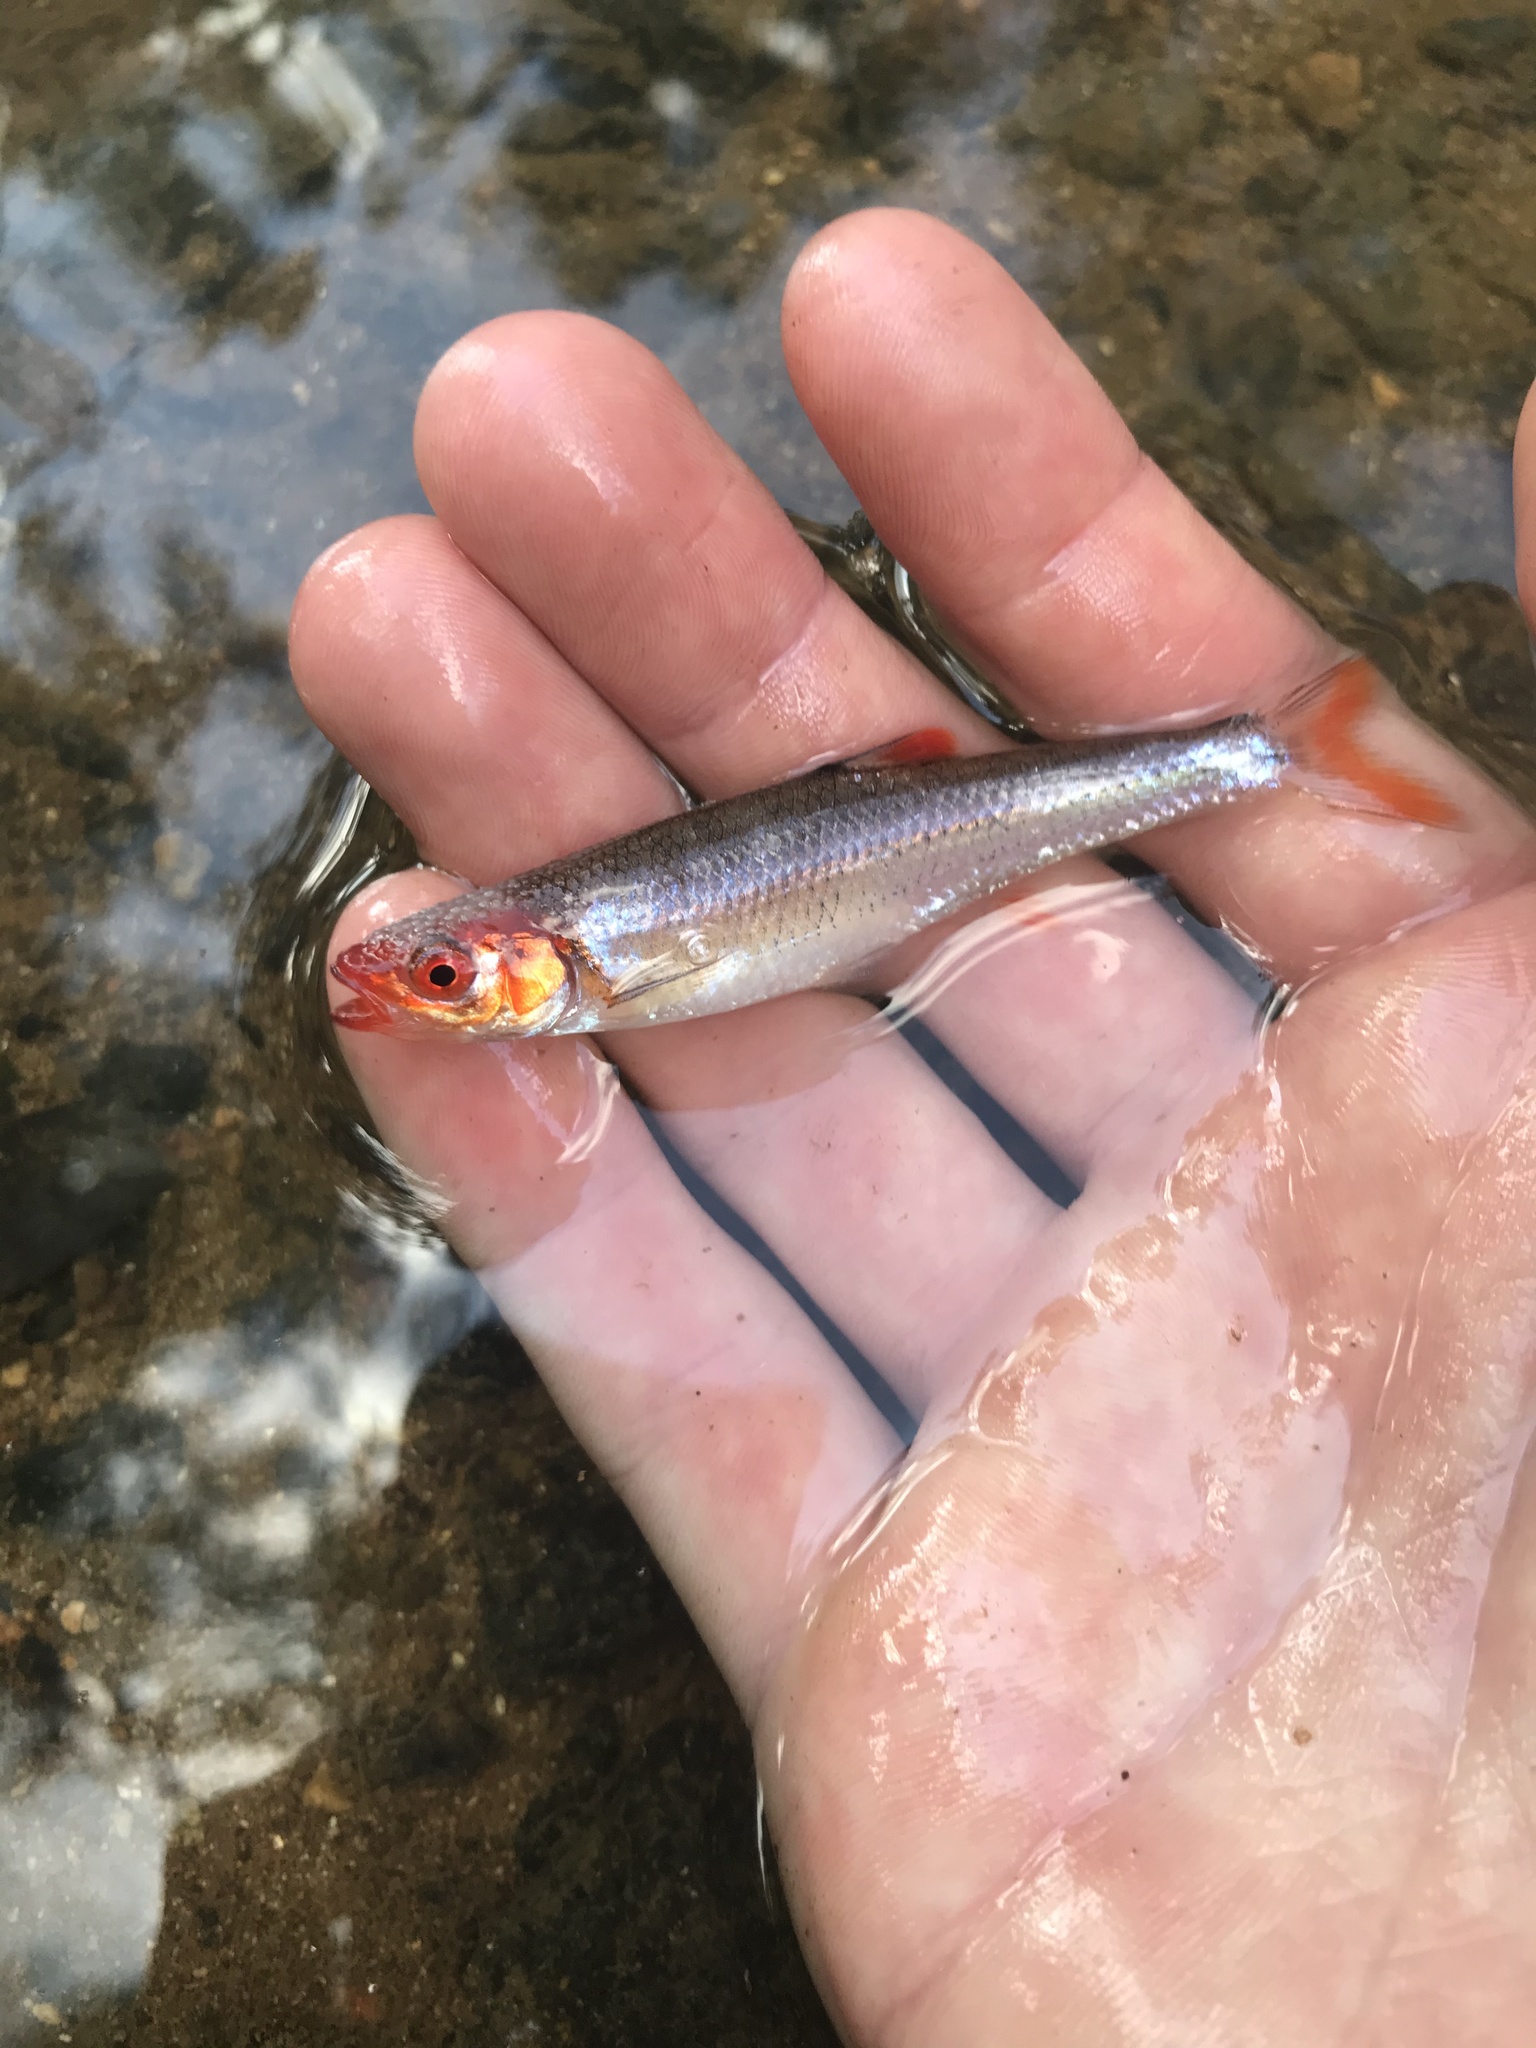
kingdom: Animalia
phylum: Chordata
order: Cypriniformes
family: Cyprinidae
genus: Lythrurus
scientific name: Lythrurus matutinus
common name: Pinewoods shiner
